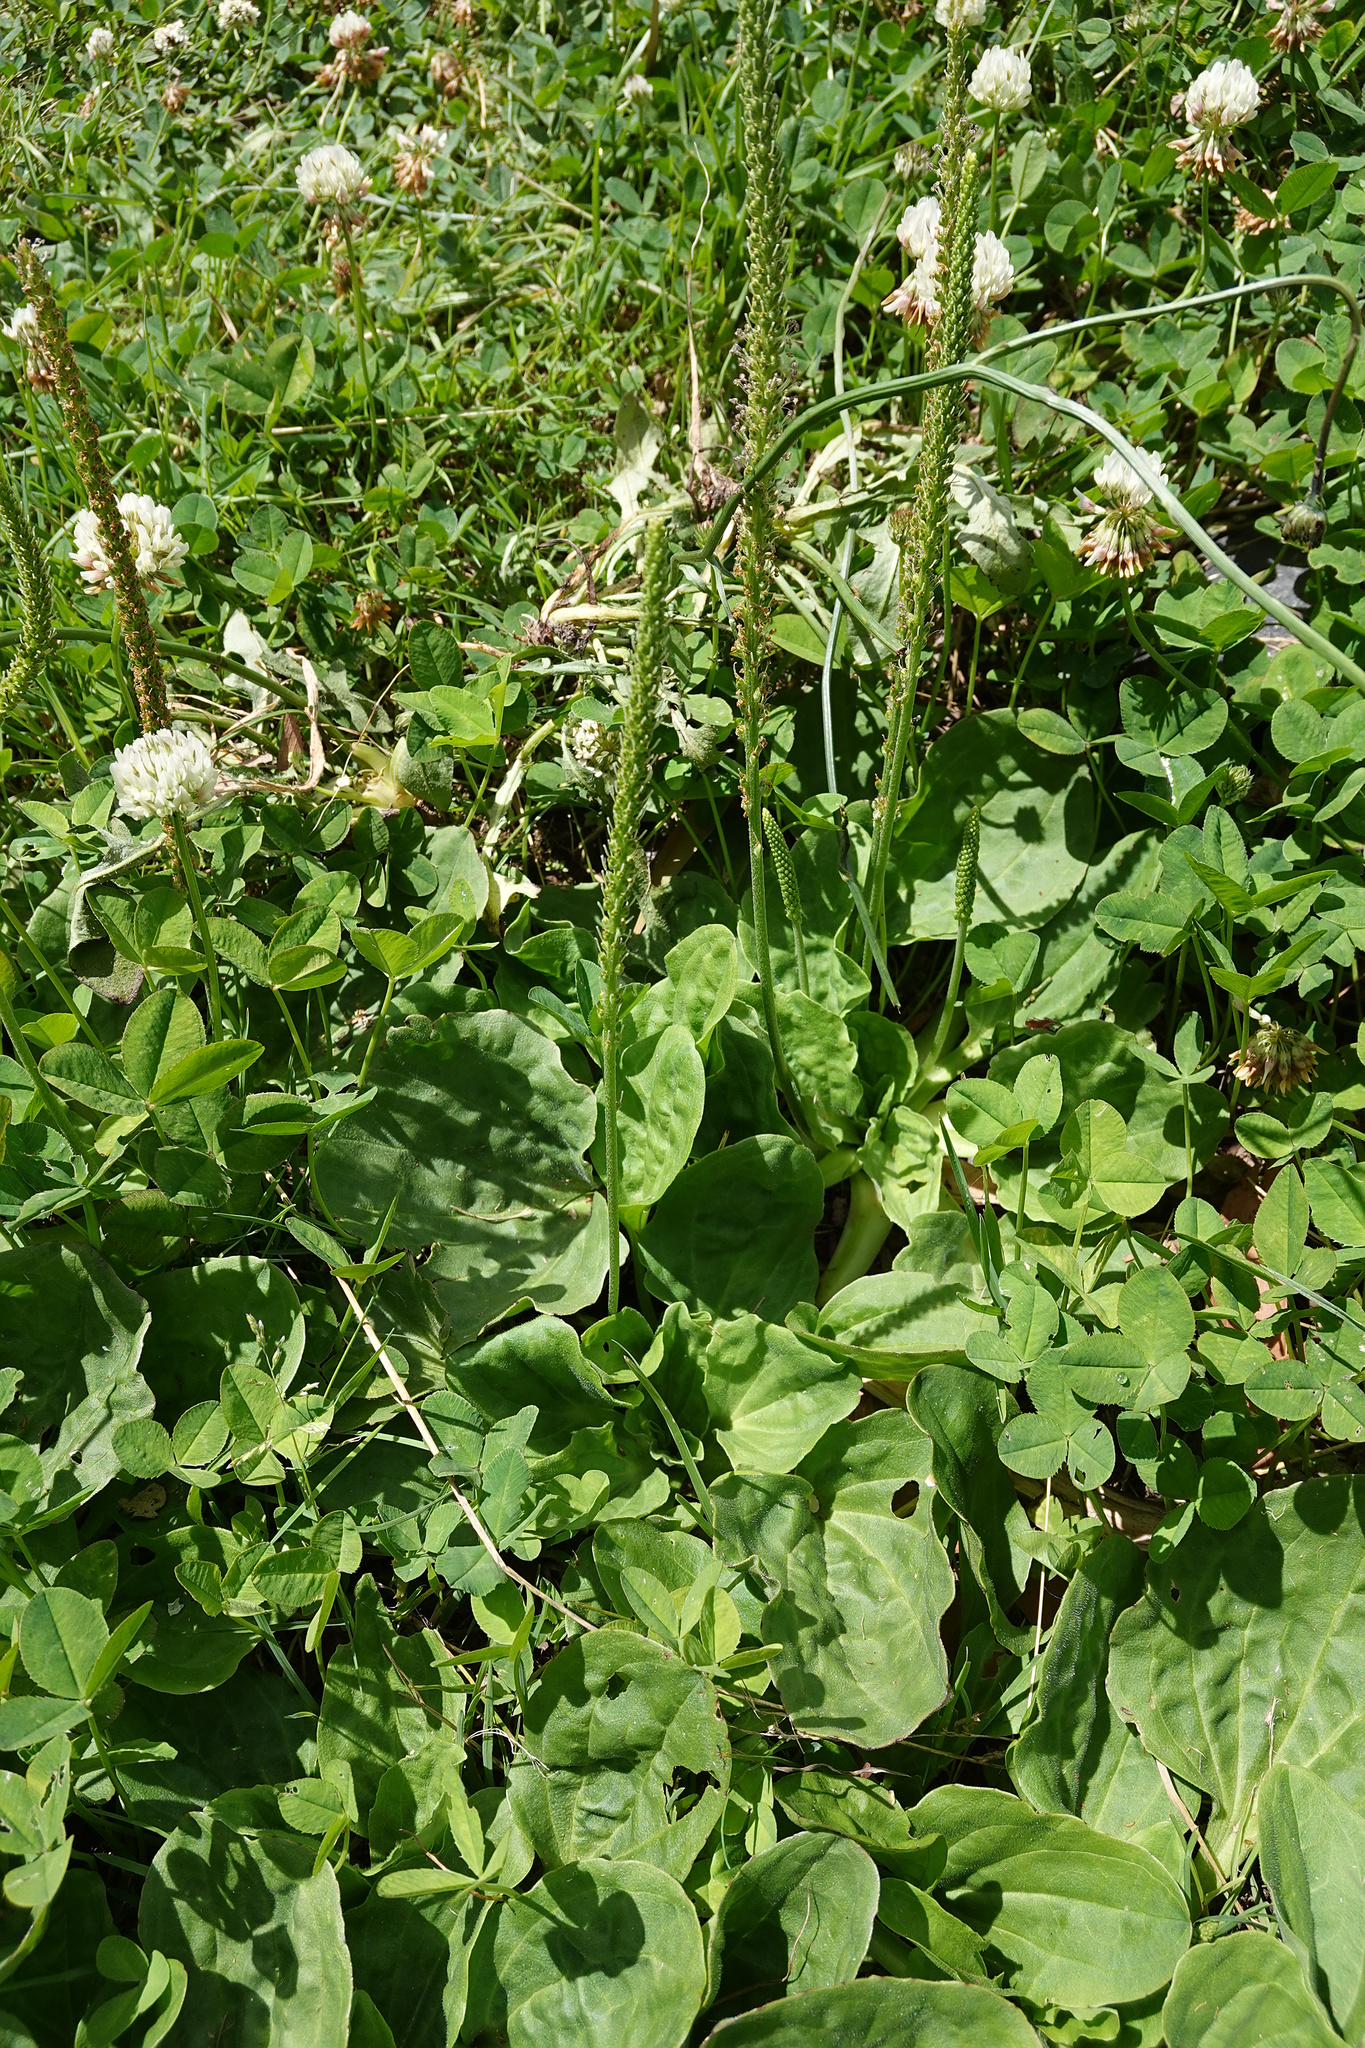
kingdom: Plantae
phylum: Tracheophyta
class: Magnoliopsida
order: Lamiales
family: Plantaginaceae
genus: Plantago
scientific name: Plantago major
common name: Common plantain
